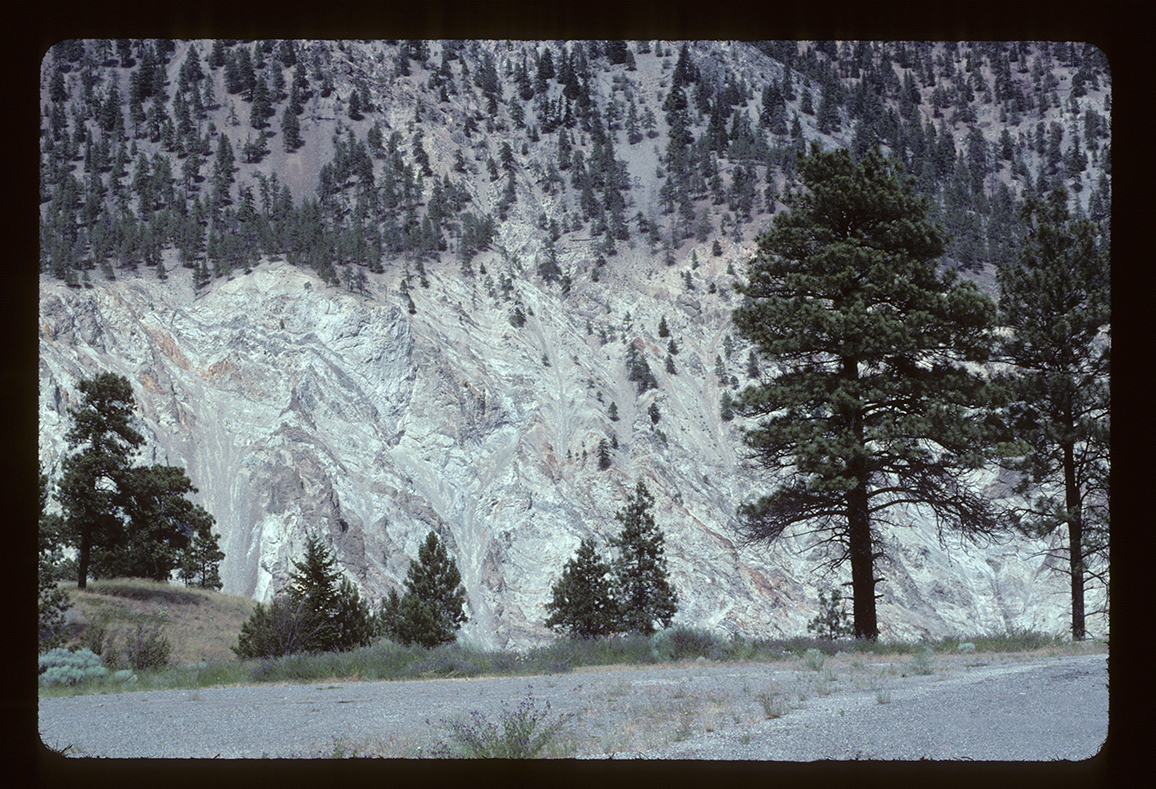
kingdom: Plantae
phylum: Tracheophyta
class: Pinopsida
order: Pinales
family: Pinaceae
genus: Pinus
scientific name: Pinus ponderosa
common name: Western yellow-pine
